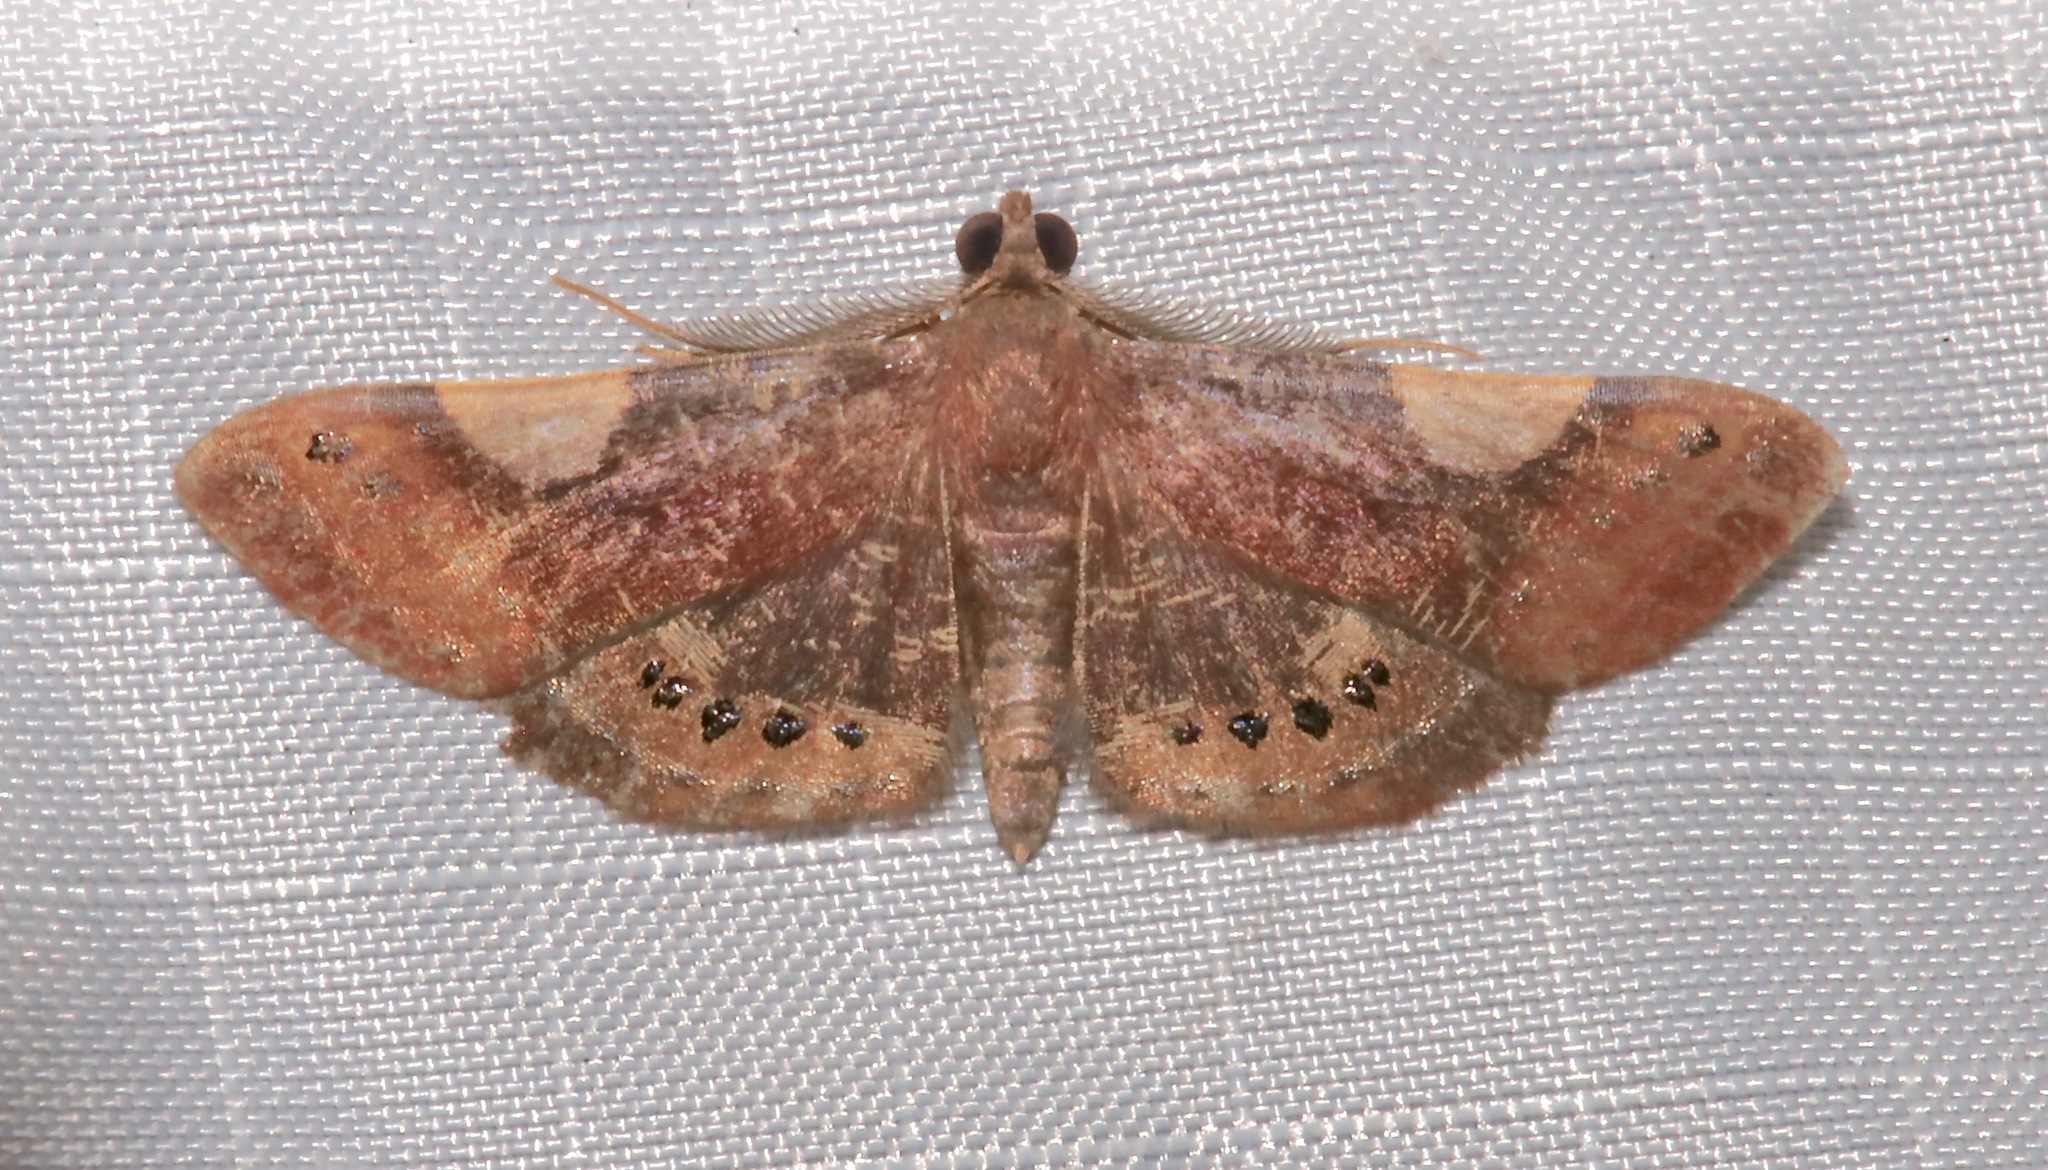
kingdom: Animalia
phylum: Arthropoda
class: Insecta
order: Lepidoptera
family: Geometridae
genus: Aplogompha
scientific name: Aplogompha argentilinea
